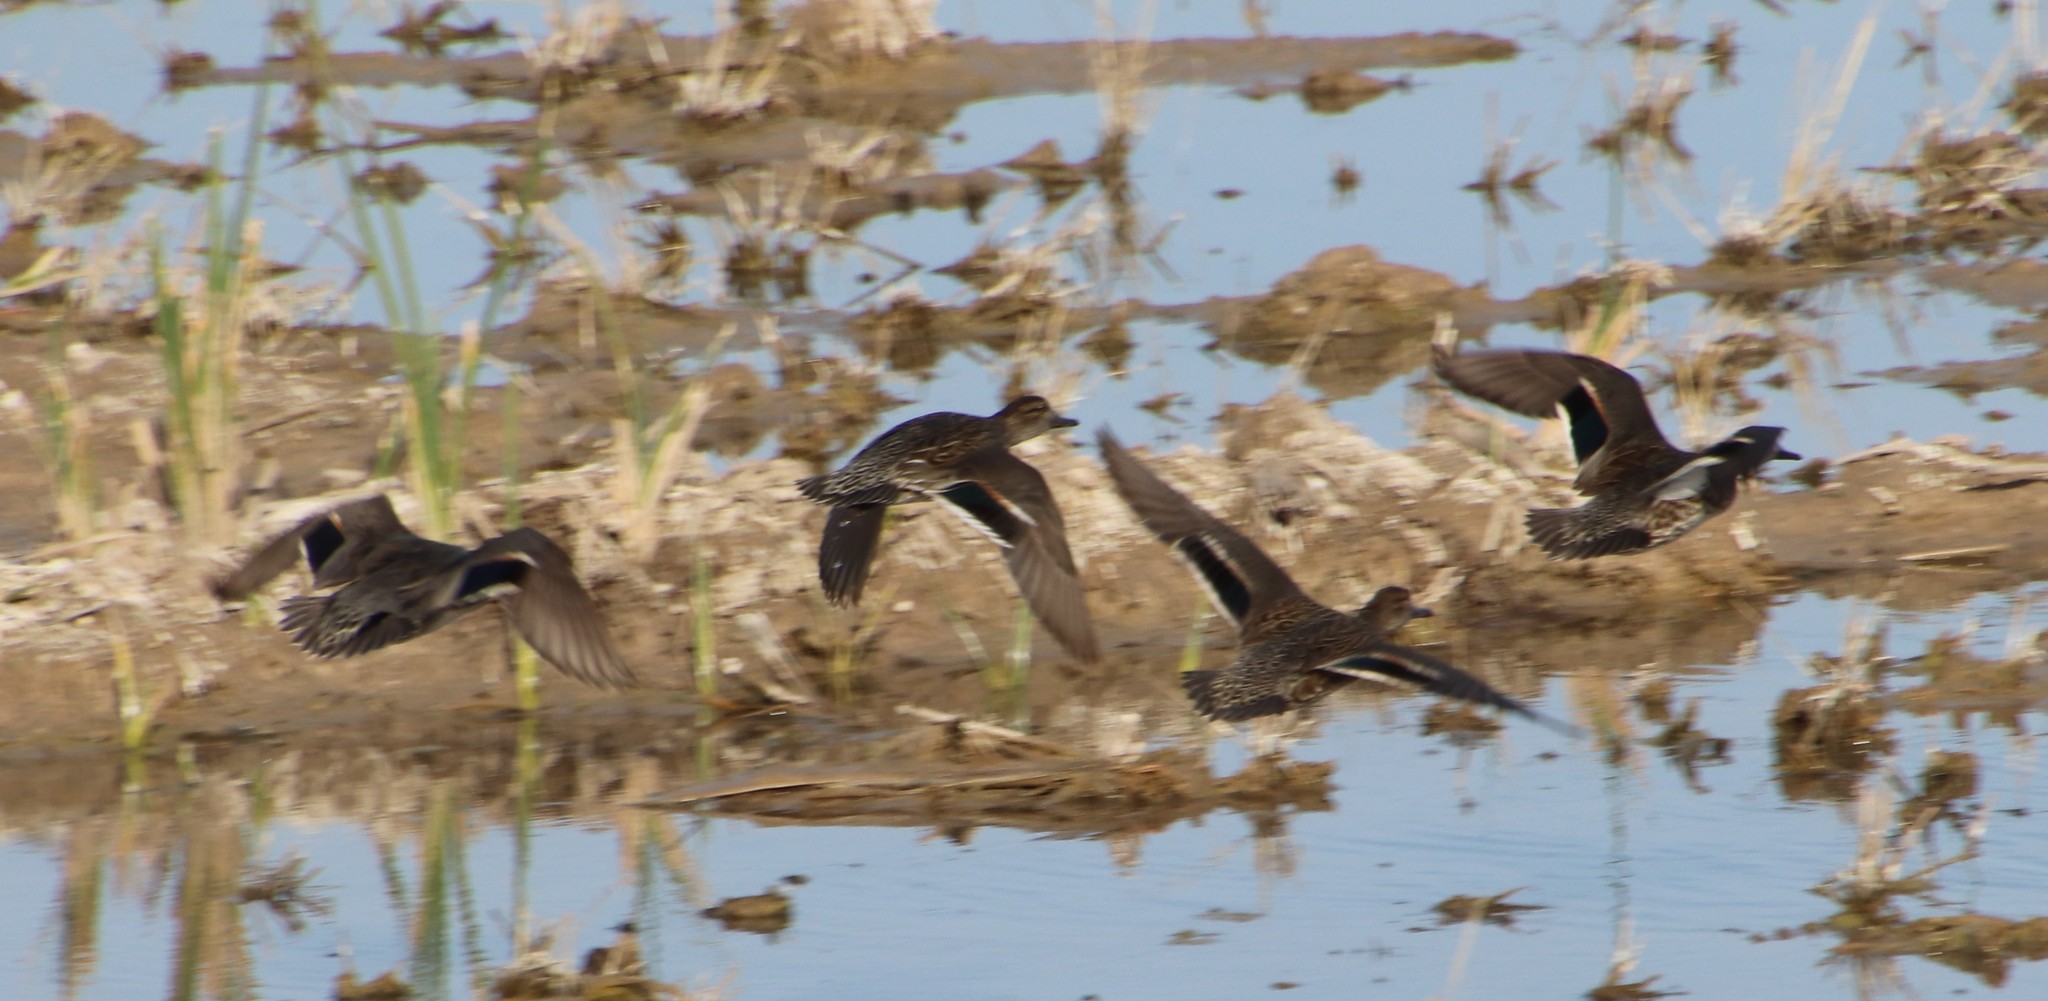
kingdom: Animalia
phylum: Chordata
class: Aves
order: Anseriformes
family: Anatidae
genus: Anas
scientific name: Anas crecca
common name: Eurasian teal
